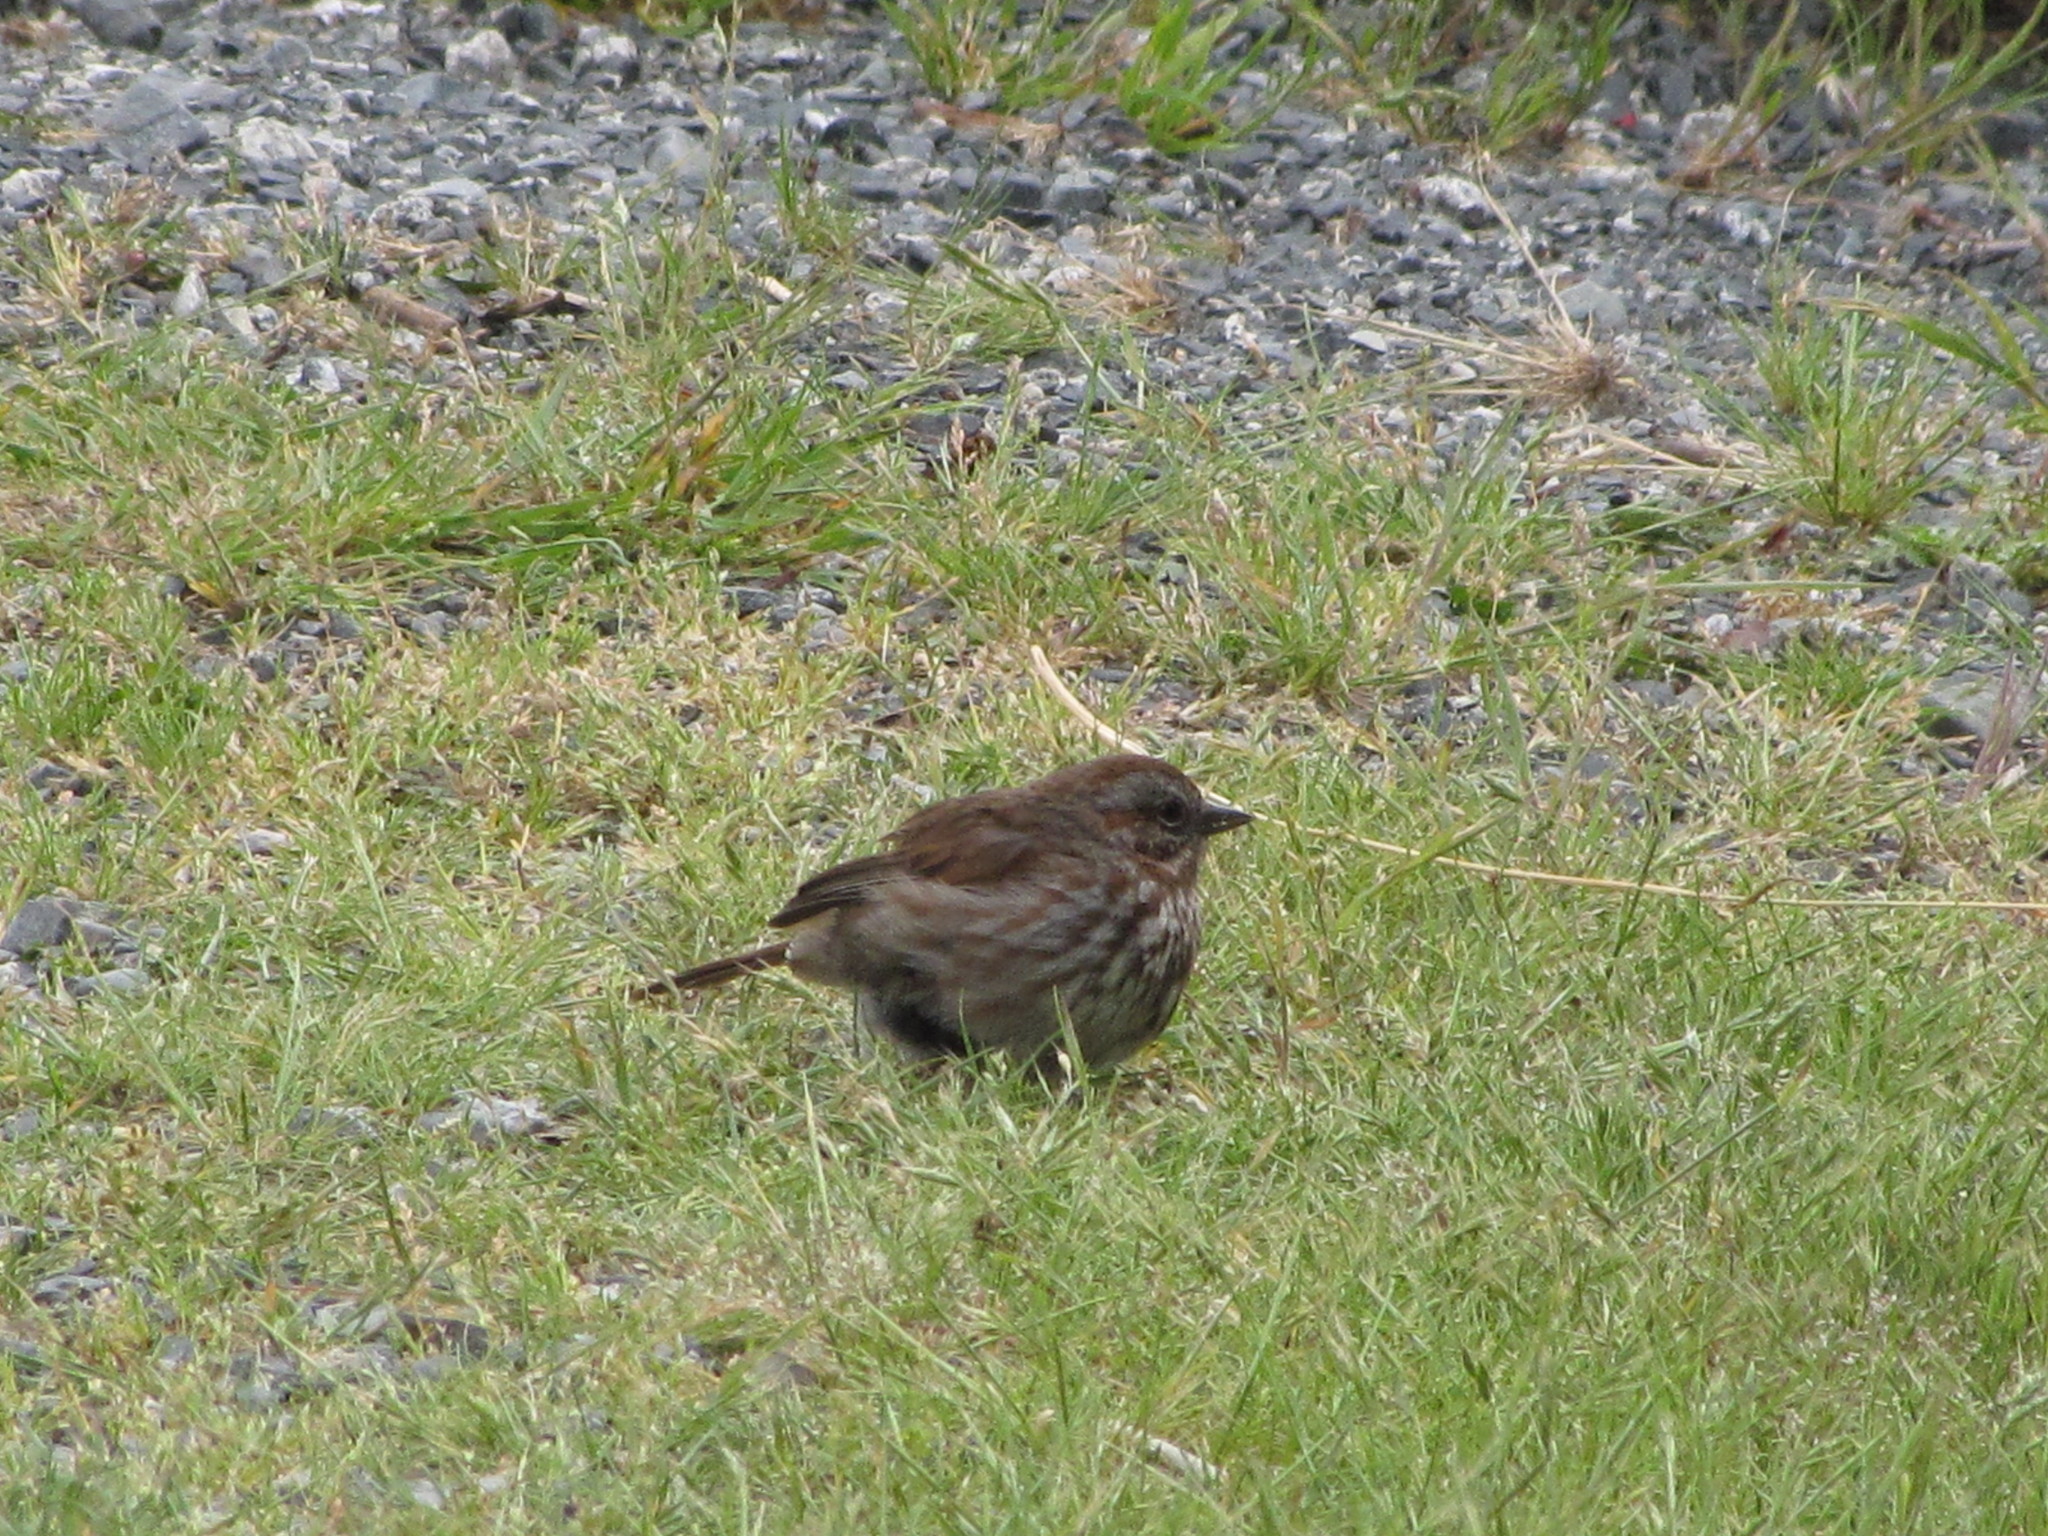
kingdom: Animalia
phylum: Chordata
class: Aves
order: Passeriformes
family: Passerellidae
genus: Melospiza
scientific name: Melospiza melodia
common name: Song sparrow
